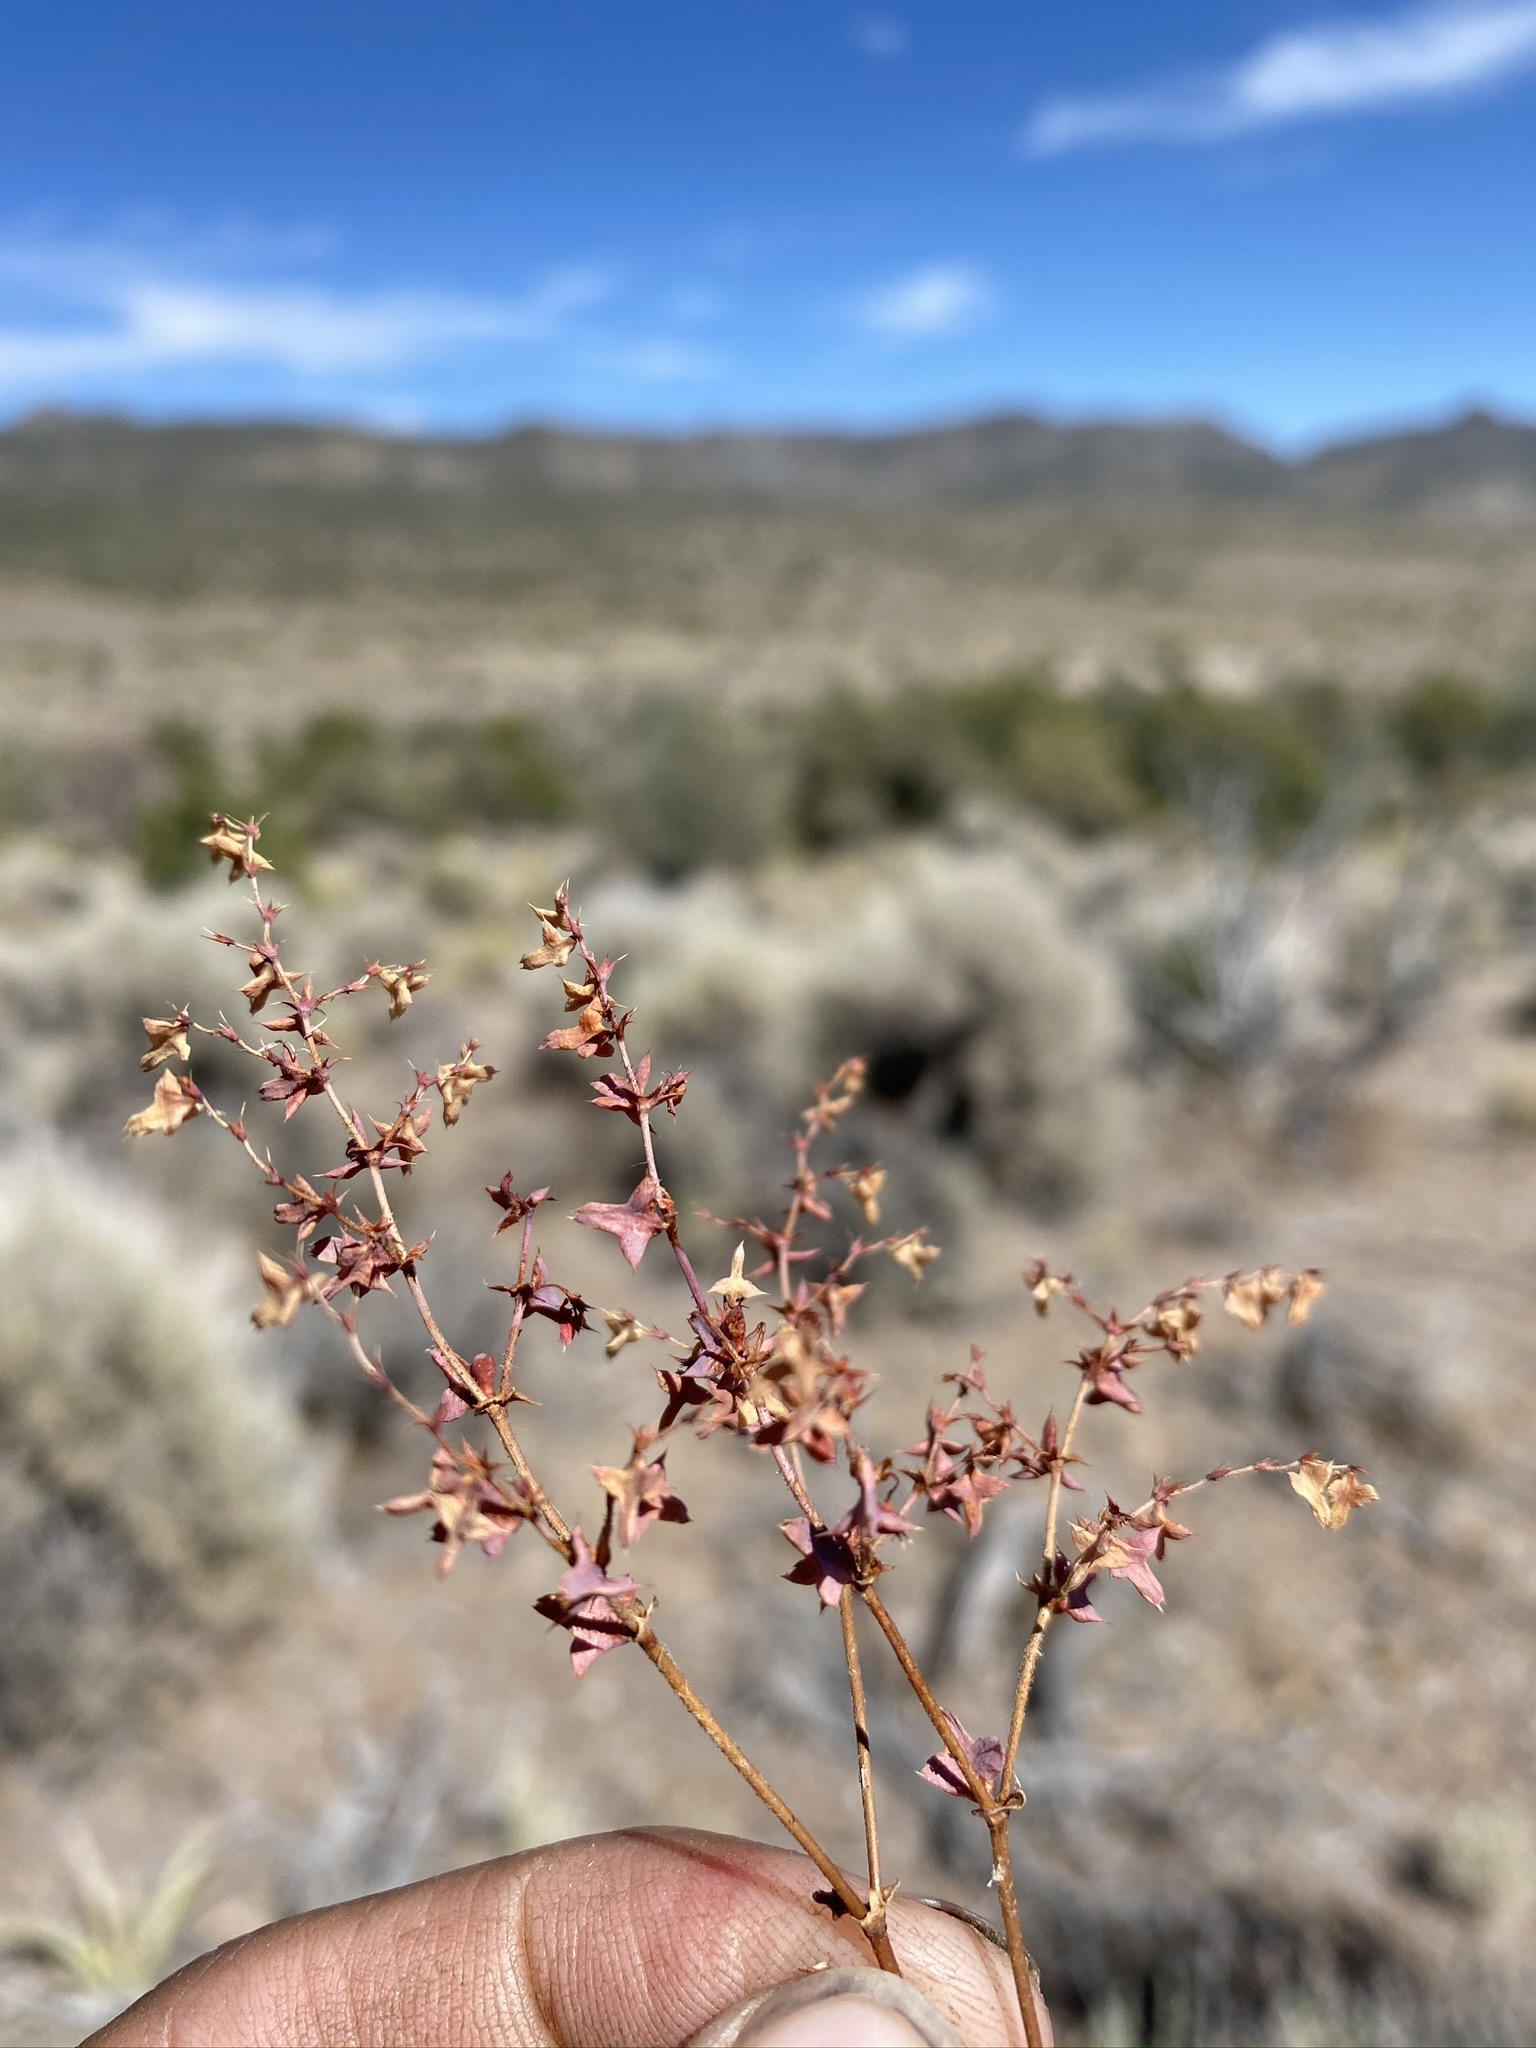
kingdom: Plantae
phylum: Tracheophyta
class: Magnoliopsida
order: Caryophyllales
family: Polygonaceae
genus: Centrostegia
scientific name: Centrostegia thurberi
